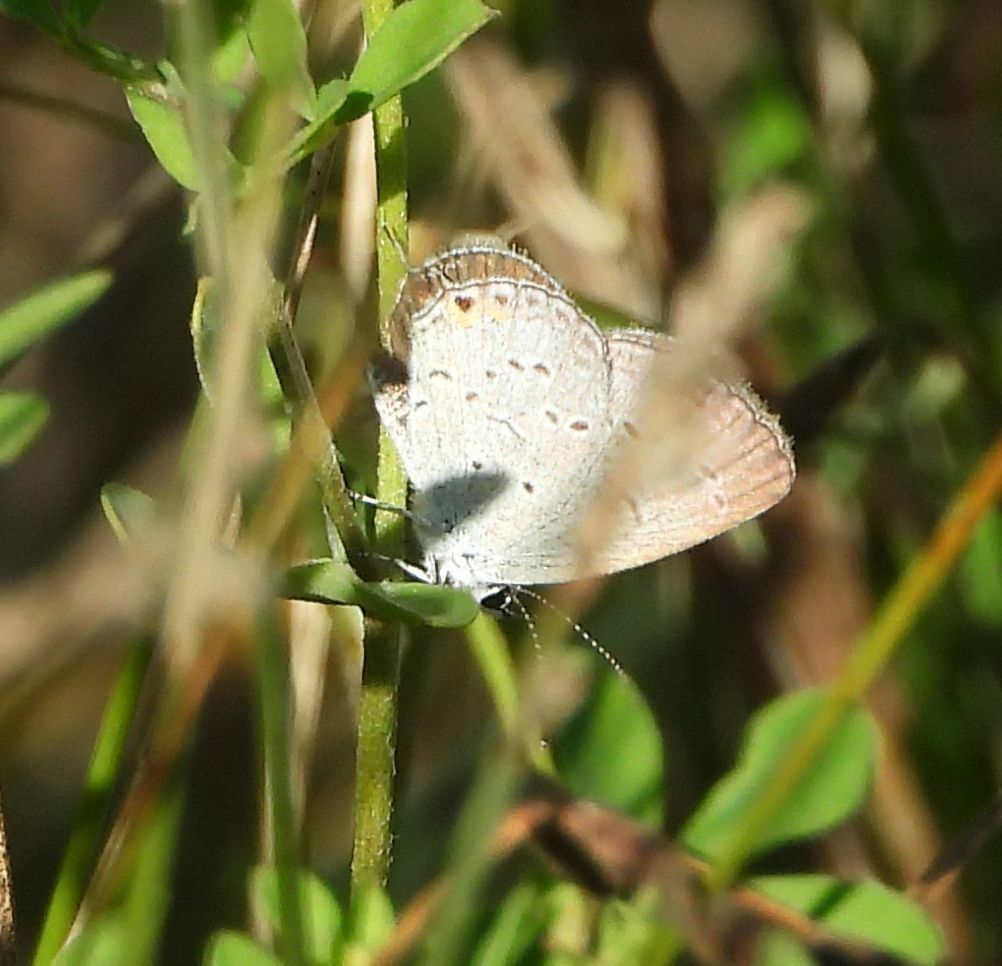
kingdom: Animalia
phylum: Arthropoda
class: Insecta
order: Lepidoptera
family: Lycaenidae
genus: Elkalyce
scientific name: Elkalyce comyntas
